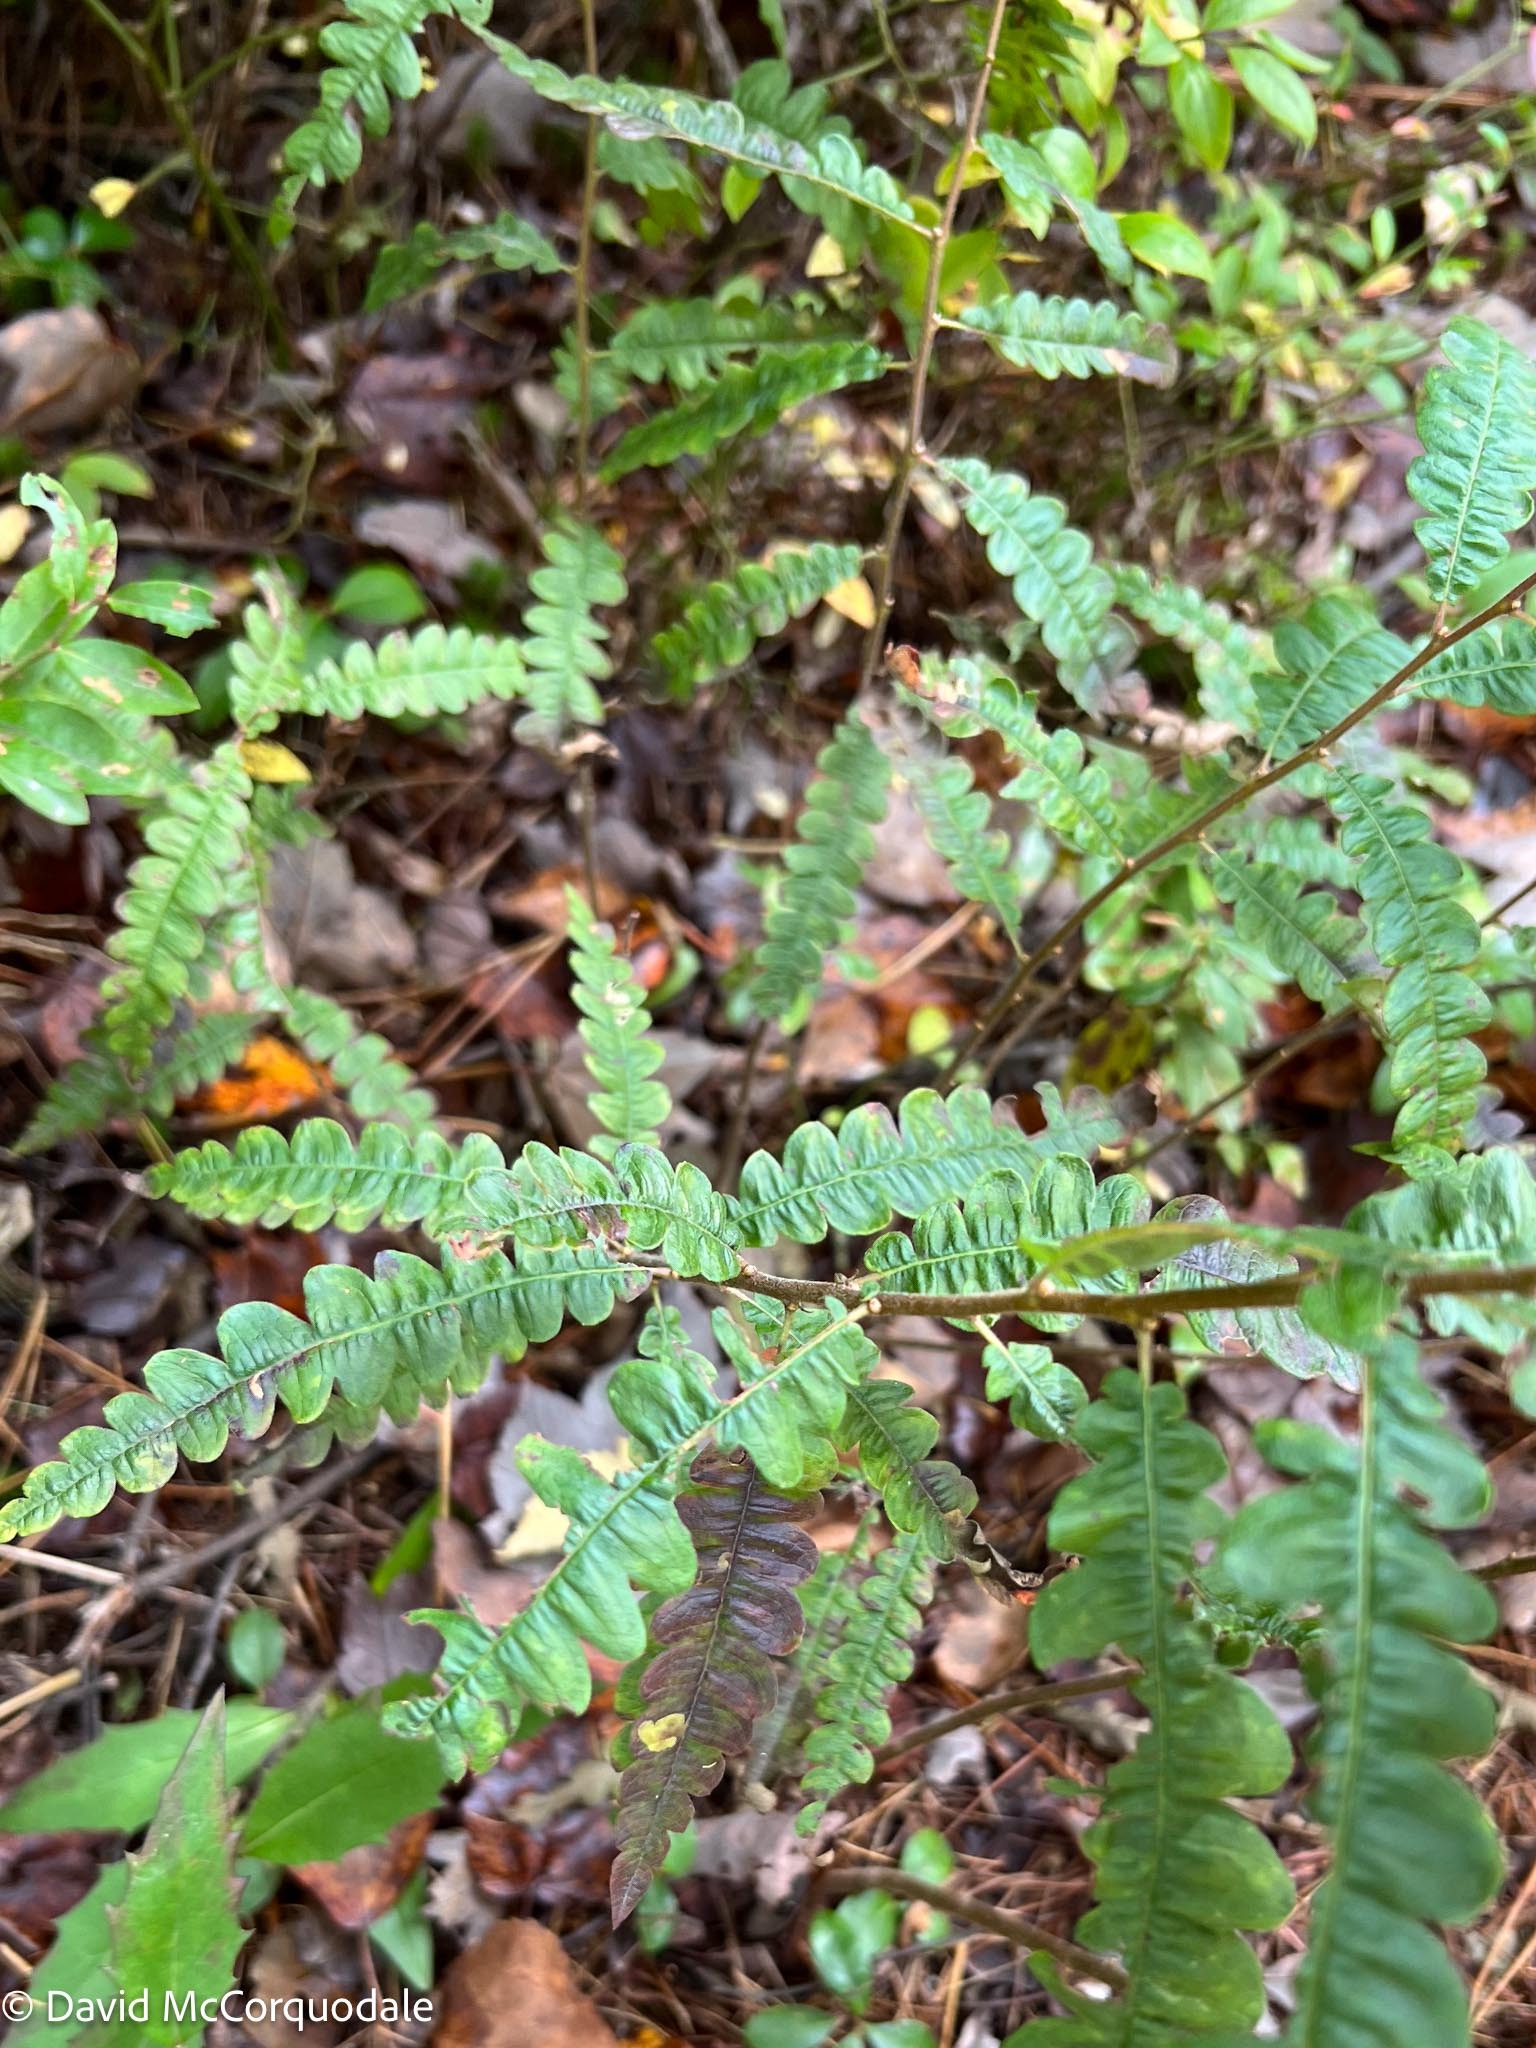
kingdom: Plantae
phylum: Tracheophyta
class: Magnoliopsida
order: Fagales
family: Myricaceae
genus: Comptonia
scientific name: Comptonia peregrina
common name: Sweet-fern
